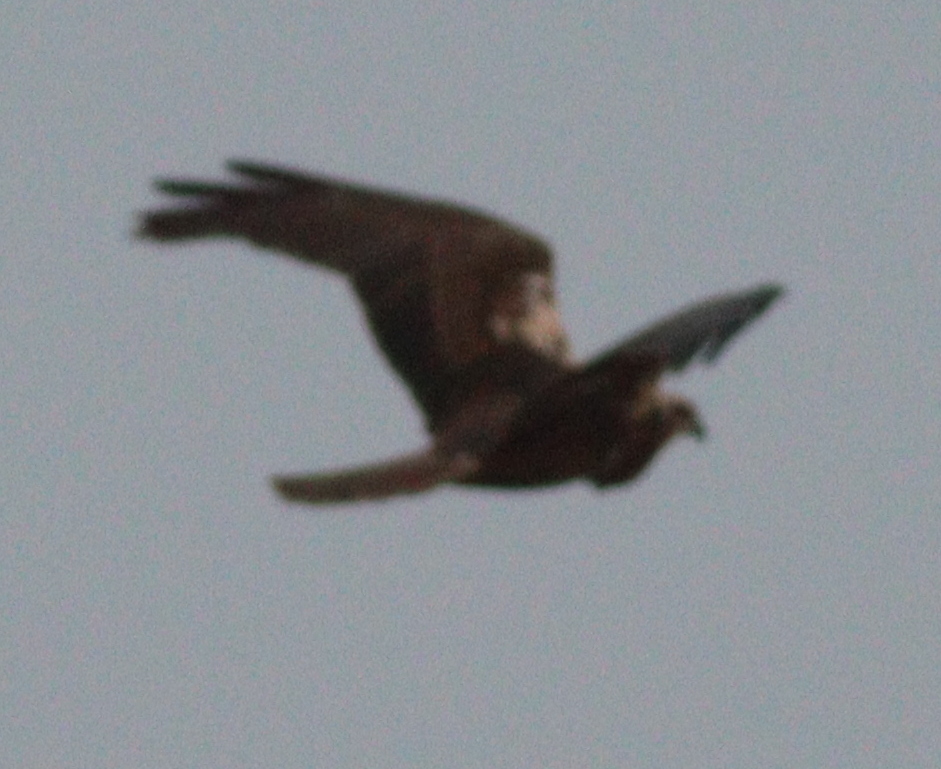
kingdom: Animalia
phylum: Chordata
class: Aves
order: Accipitriformes
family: Accipitridae
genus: Circus
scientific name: Circus aeruginosus
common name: Western marsh harrier
